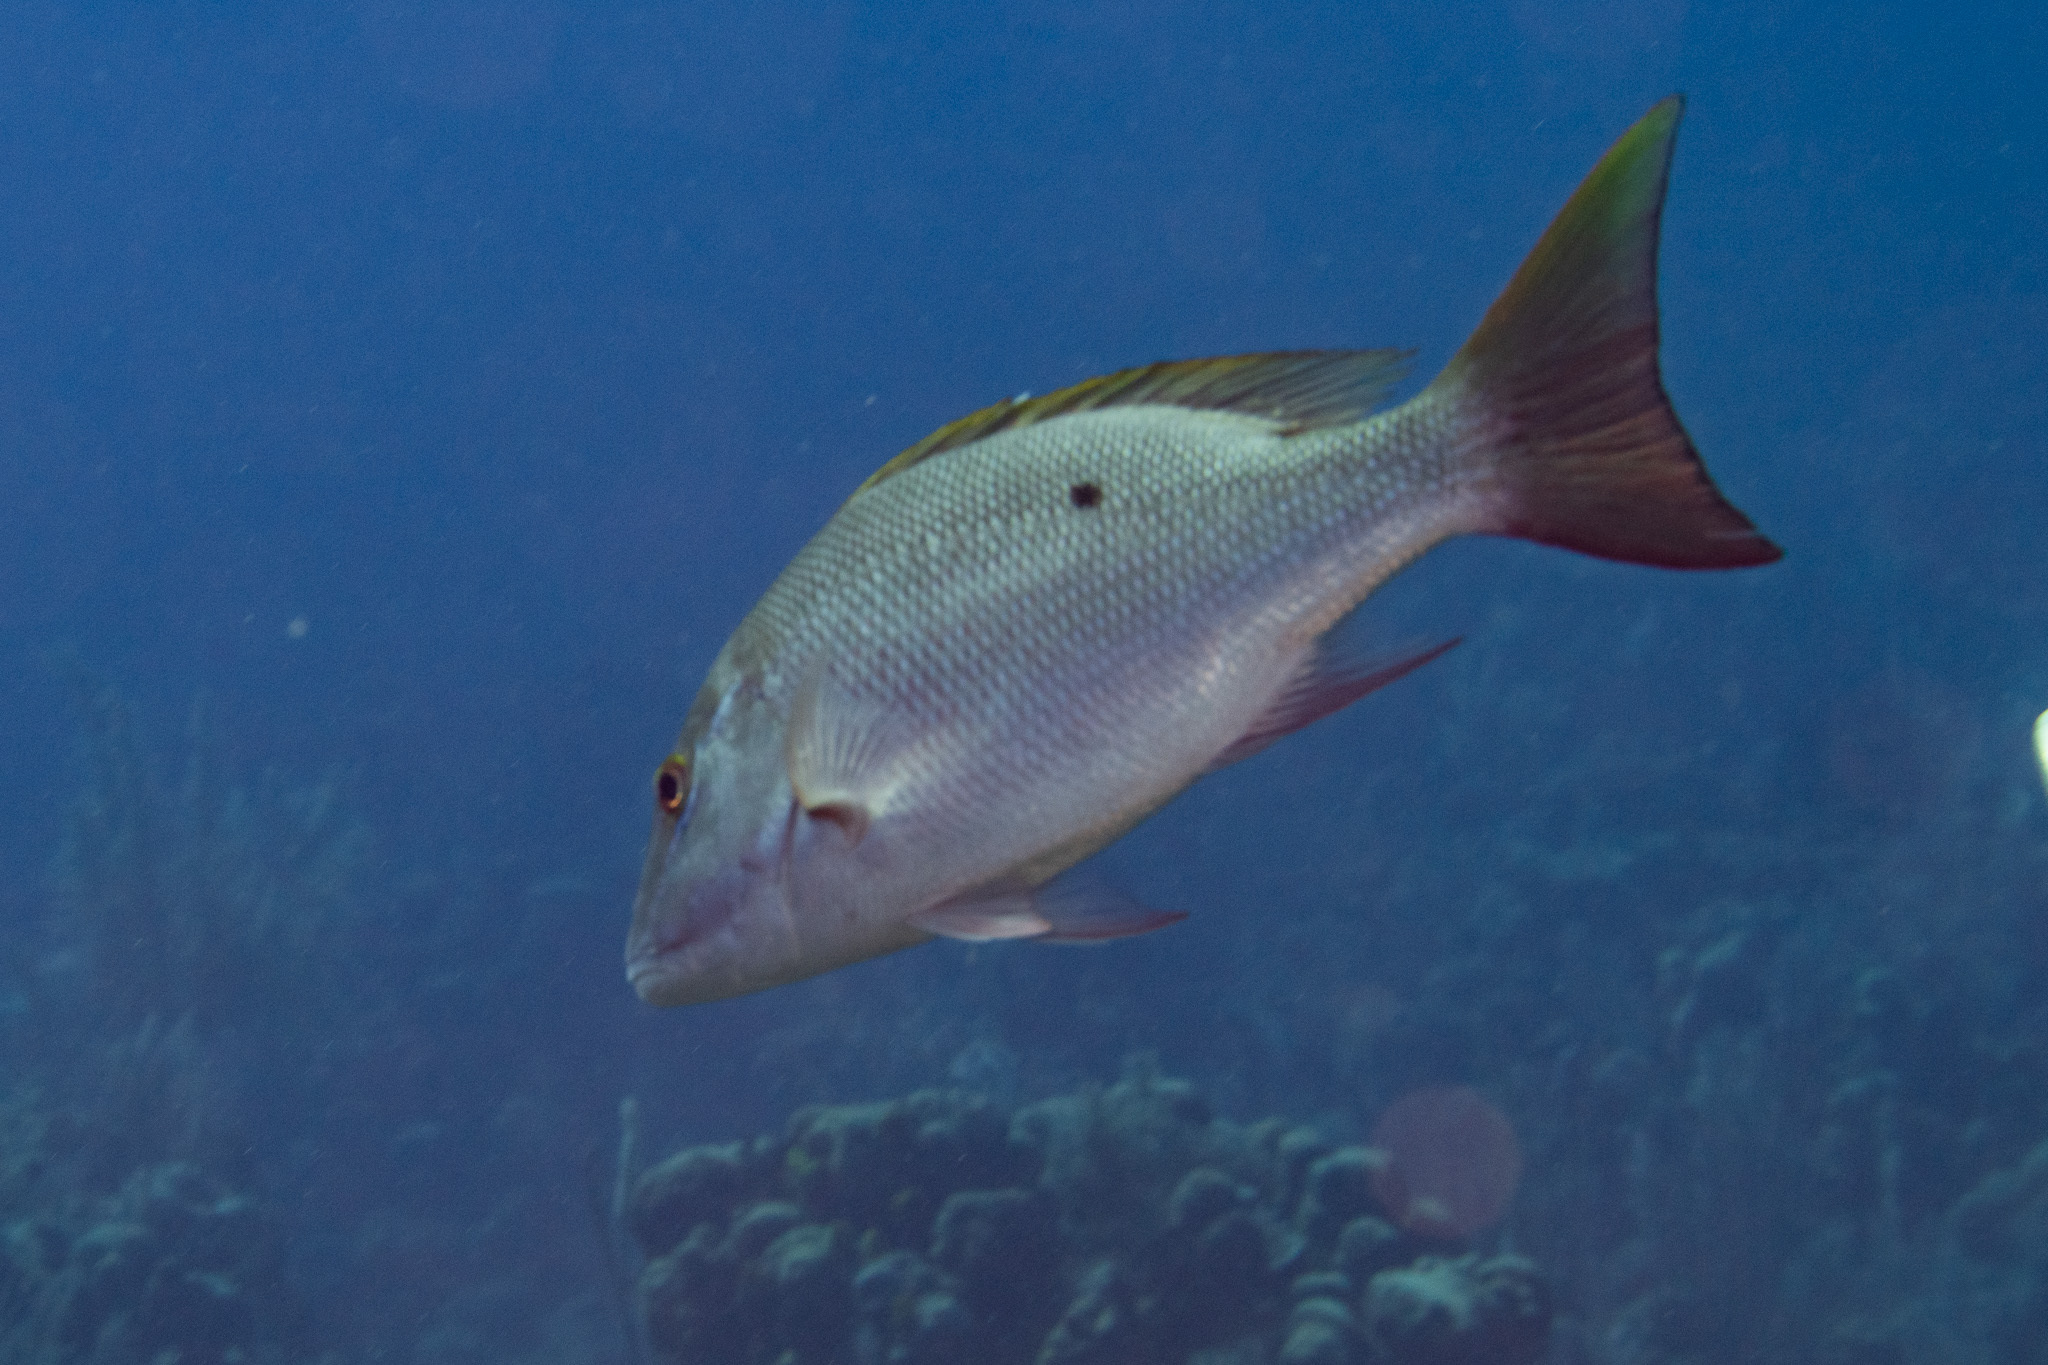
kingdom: Animalia
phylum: Chordata
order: Perciformes
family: Lutjanidae
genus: Lutjanus
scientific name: Lutjanus analis
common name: Mutton snapper
